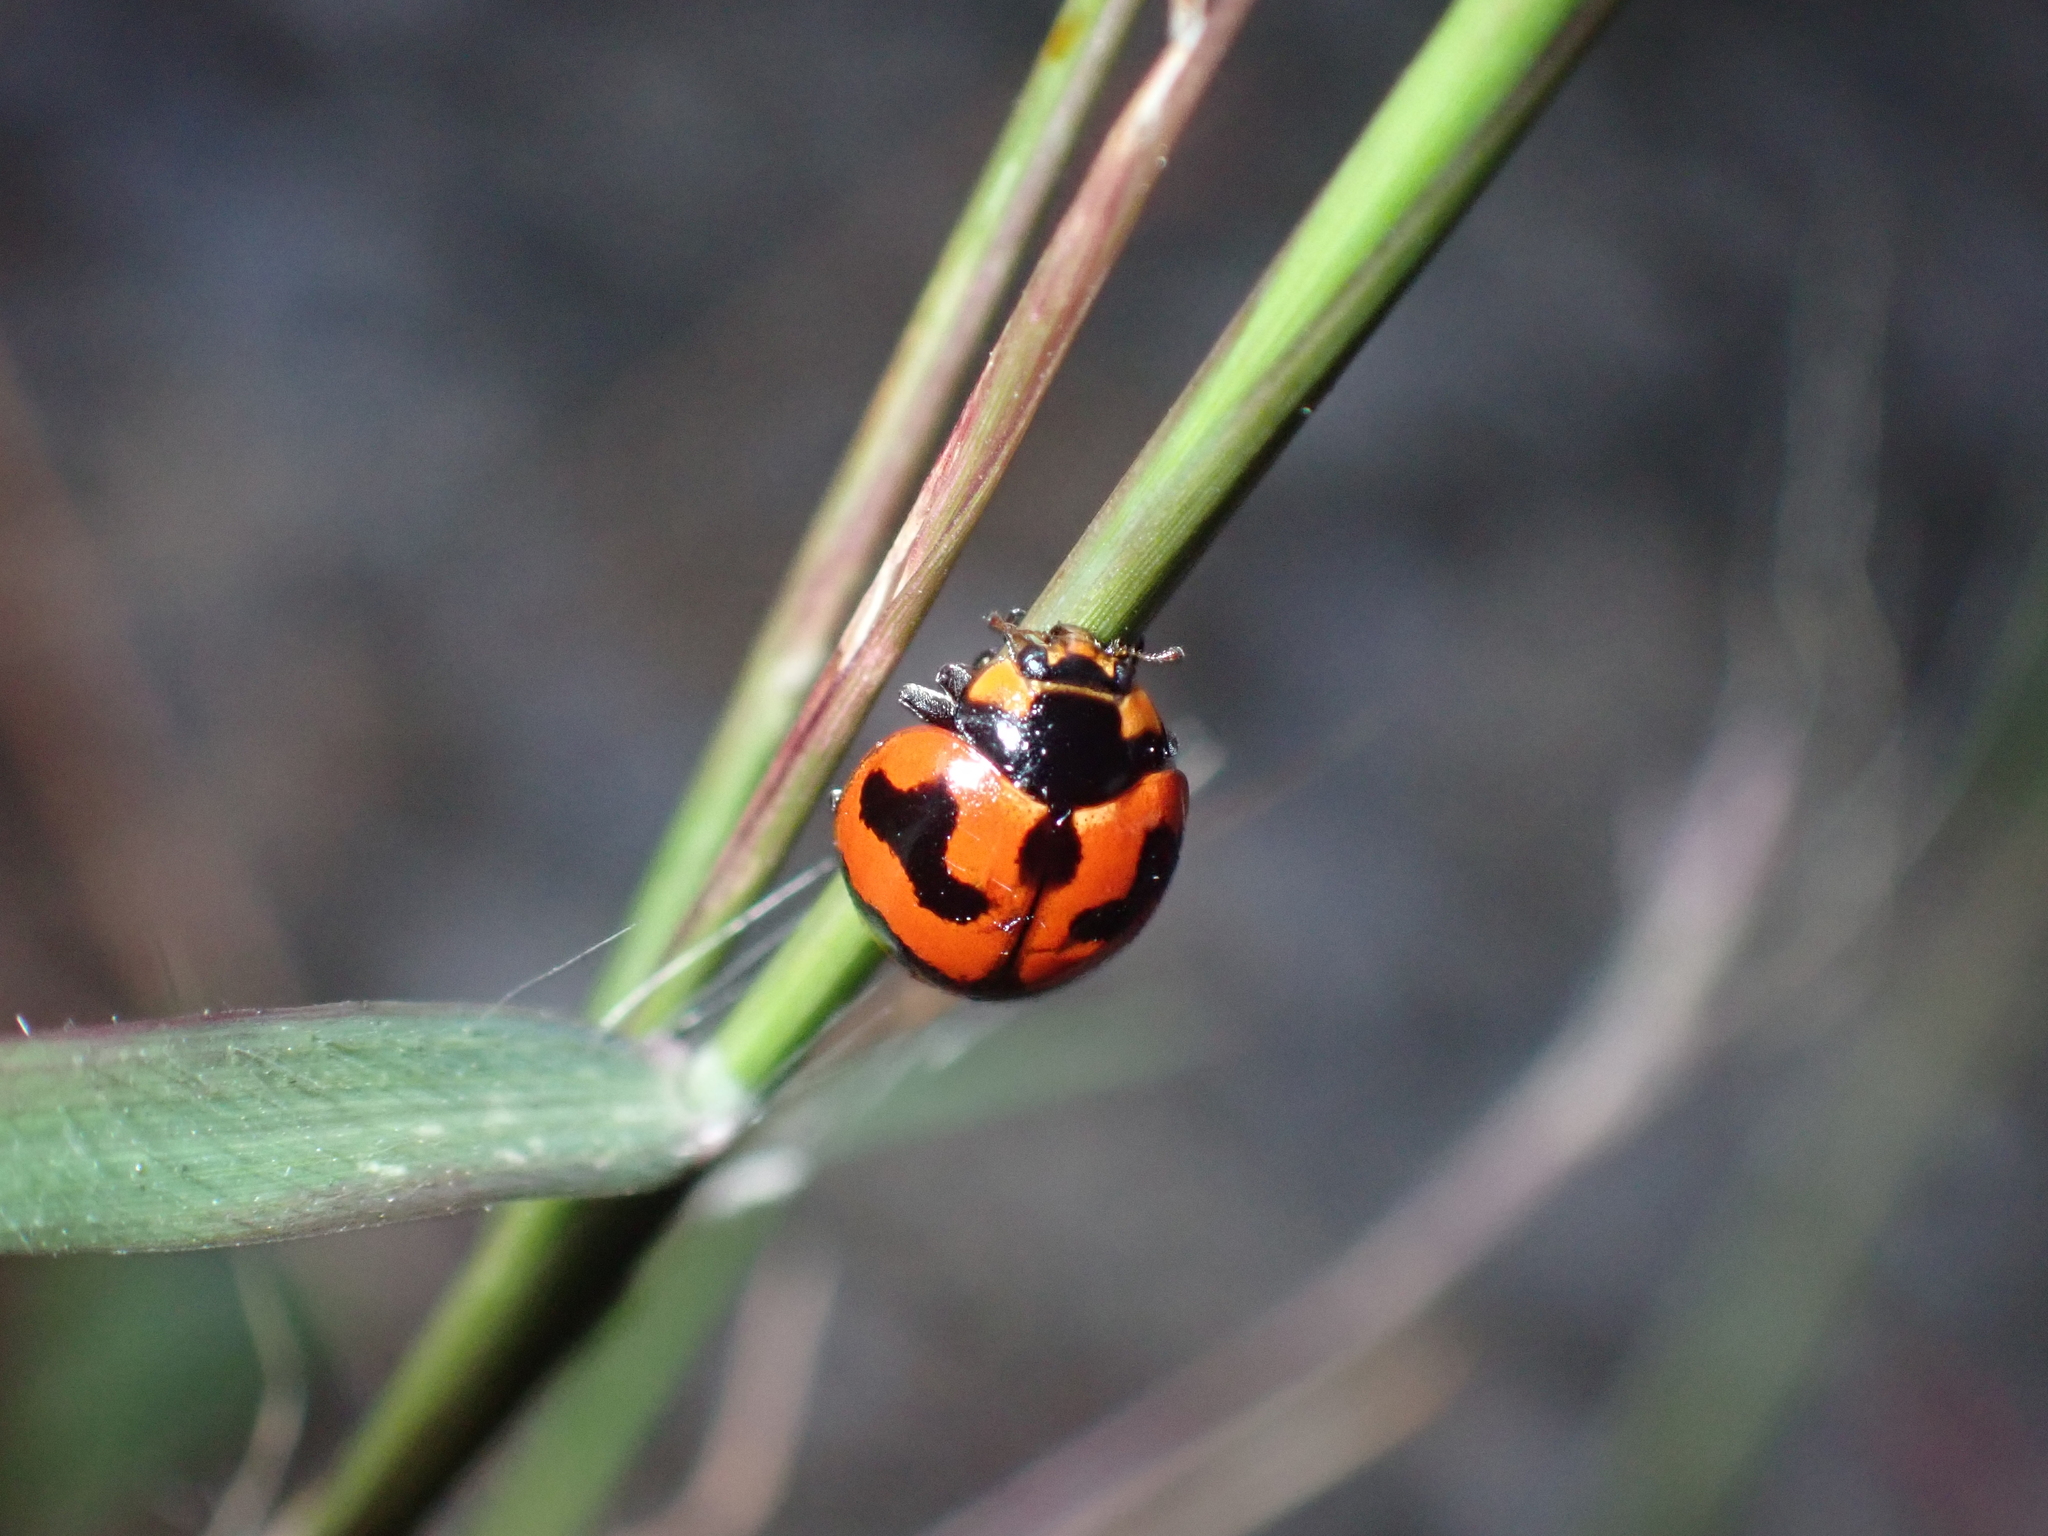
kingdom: Animalia
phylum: Arthropoda
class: Insecta
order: Coleoptera
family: Coccinellidae
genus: Coccinella
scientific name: Coccinella transversalis
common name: Transverse lady beetle
